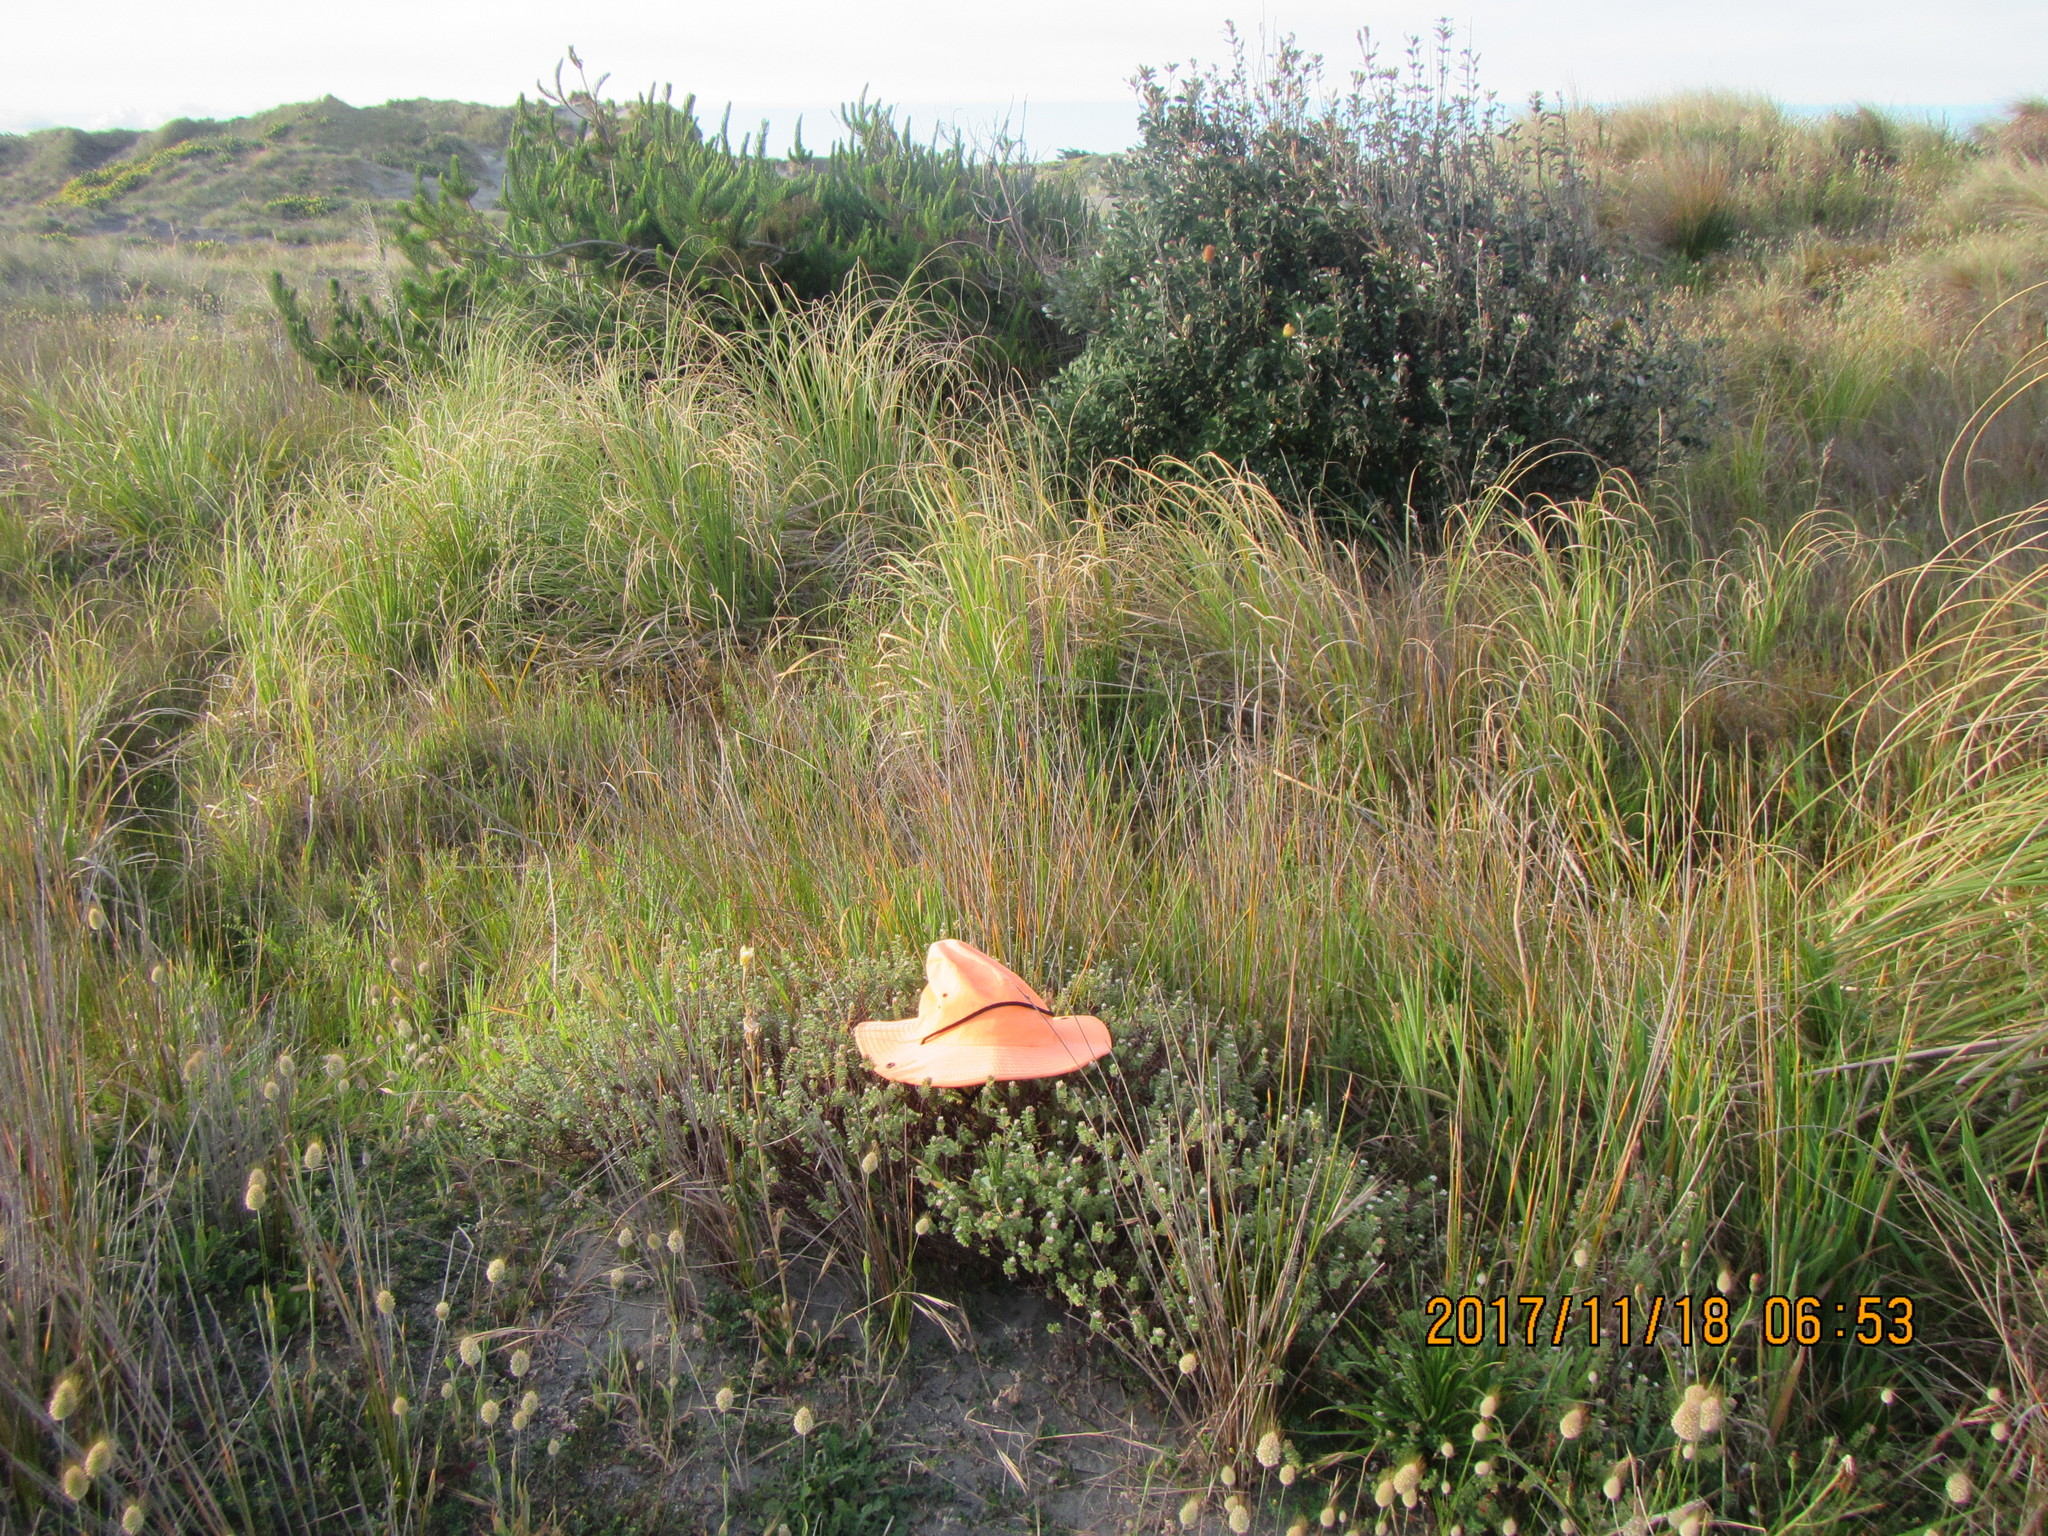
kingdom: Plantae
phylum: Tracheophyta
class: Magnoliopsida
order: Malvales
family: Thymelaeaceae
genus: Pimelea
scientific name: Pimelea villosa
